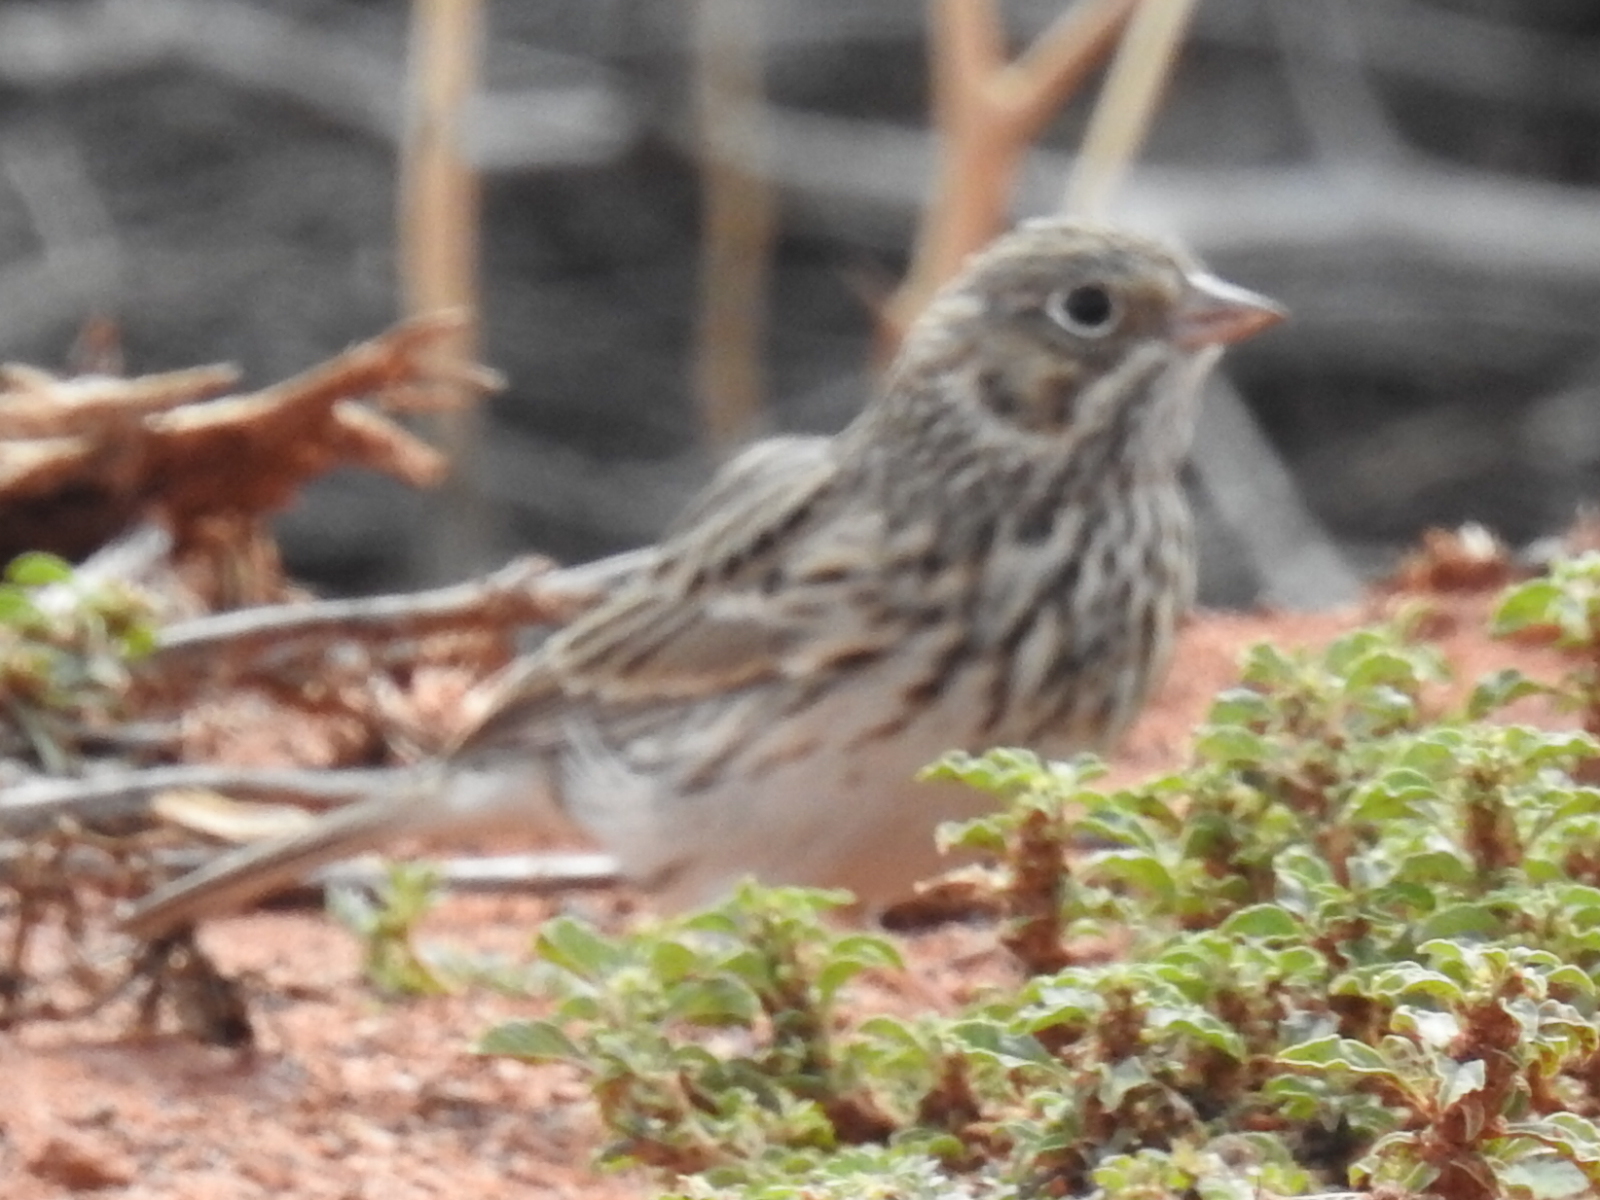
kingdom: Animalia
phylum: Chordata
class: Aves
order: Passeriformes
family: Passerellidae
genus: Pooecetes
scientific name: Pooecetes gramineus
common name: Vesper sparrow
